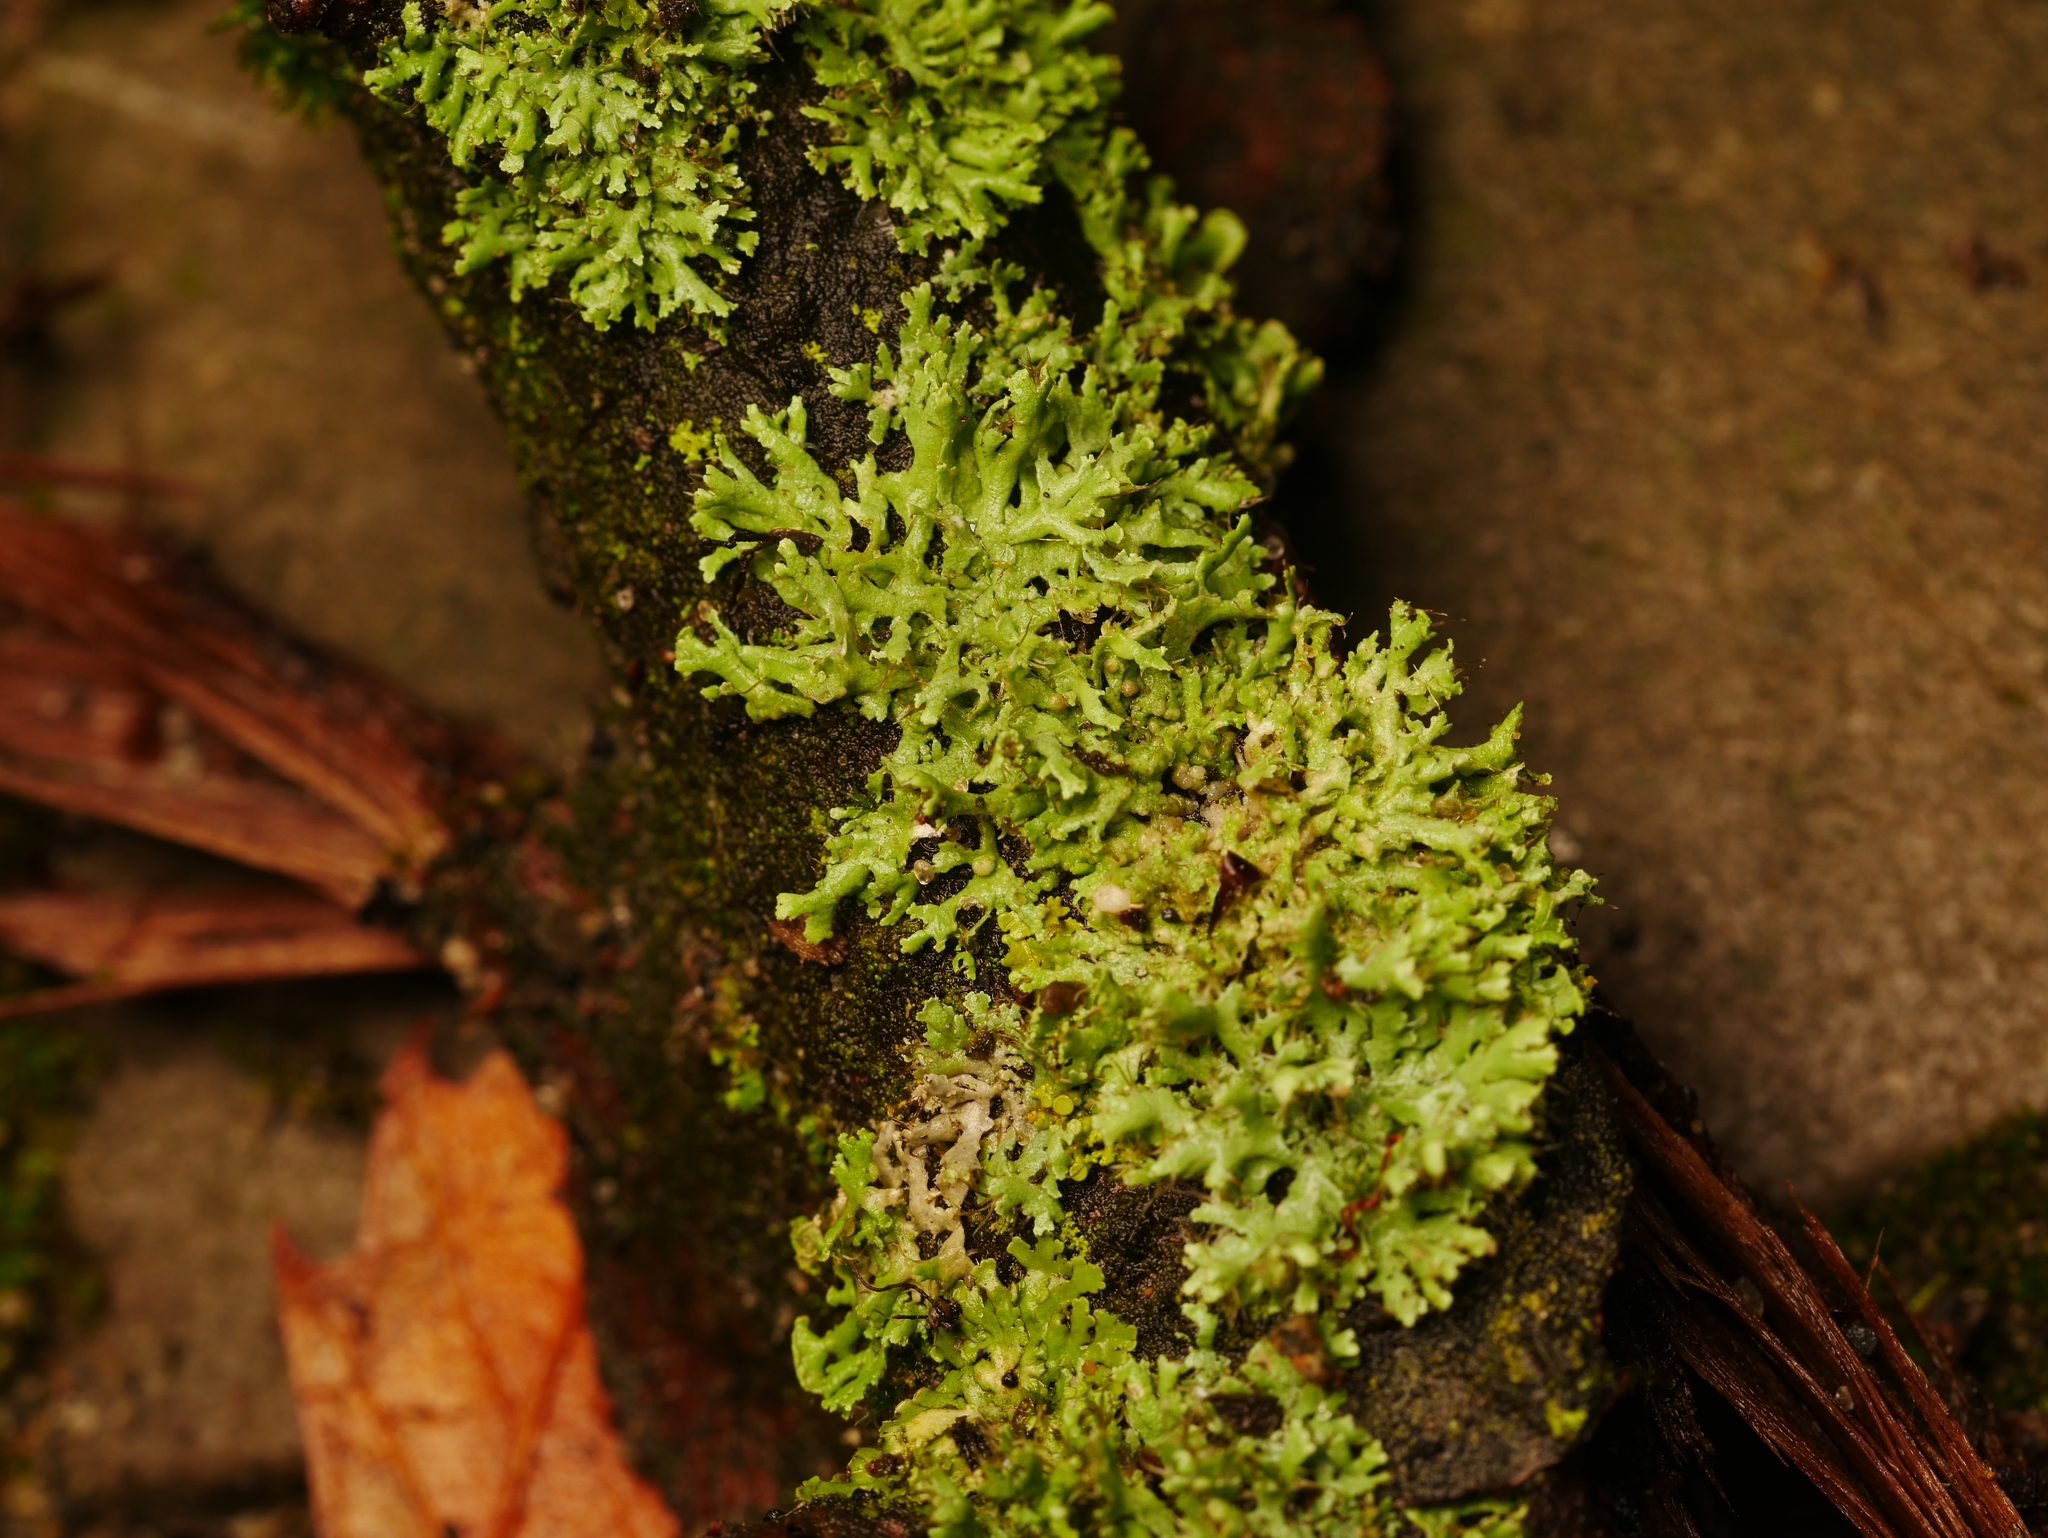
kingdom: Fungi
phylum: Ascomycota
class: Lecanoromycetes
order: Caliciales
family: Physciaceae
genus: Physcia
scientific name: Physcia tenella
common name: Fringed rosette lichen
